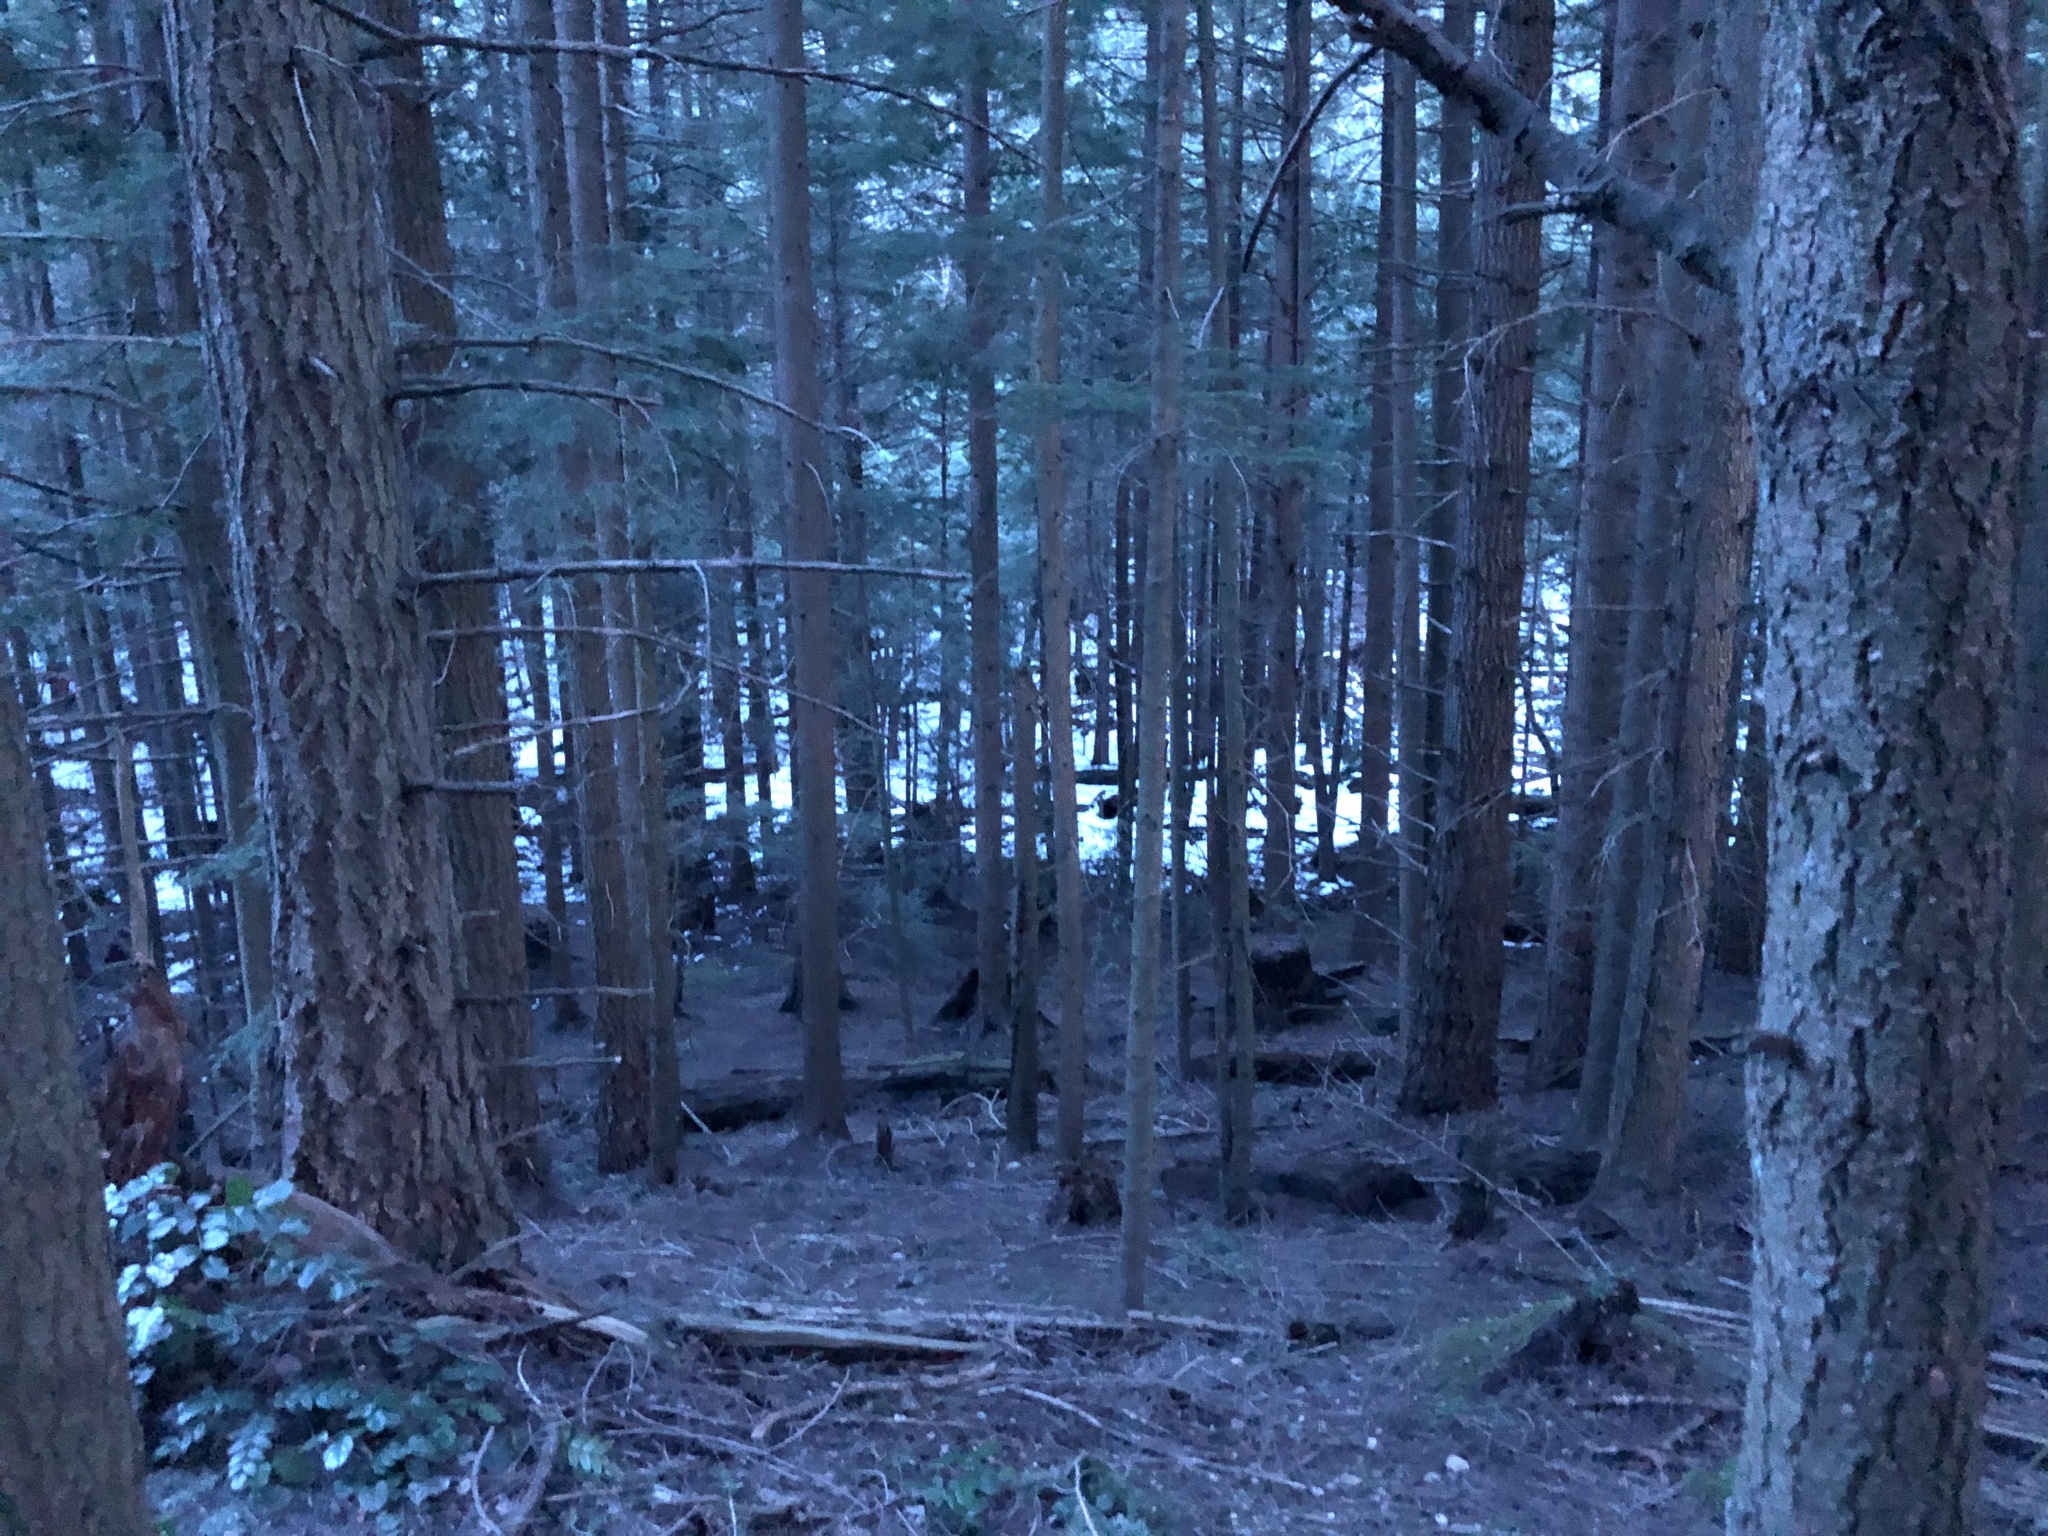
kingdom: Plantae
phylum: Tracheophyta
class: Pinopsida
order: Pinales
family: Pinaceae
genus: Pseudotsuga
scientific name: Pseudotsuga menziesii
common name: Douglas fir
